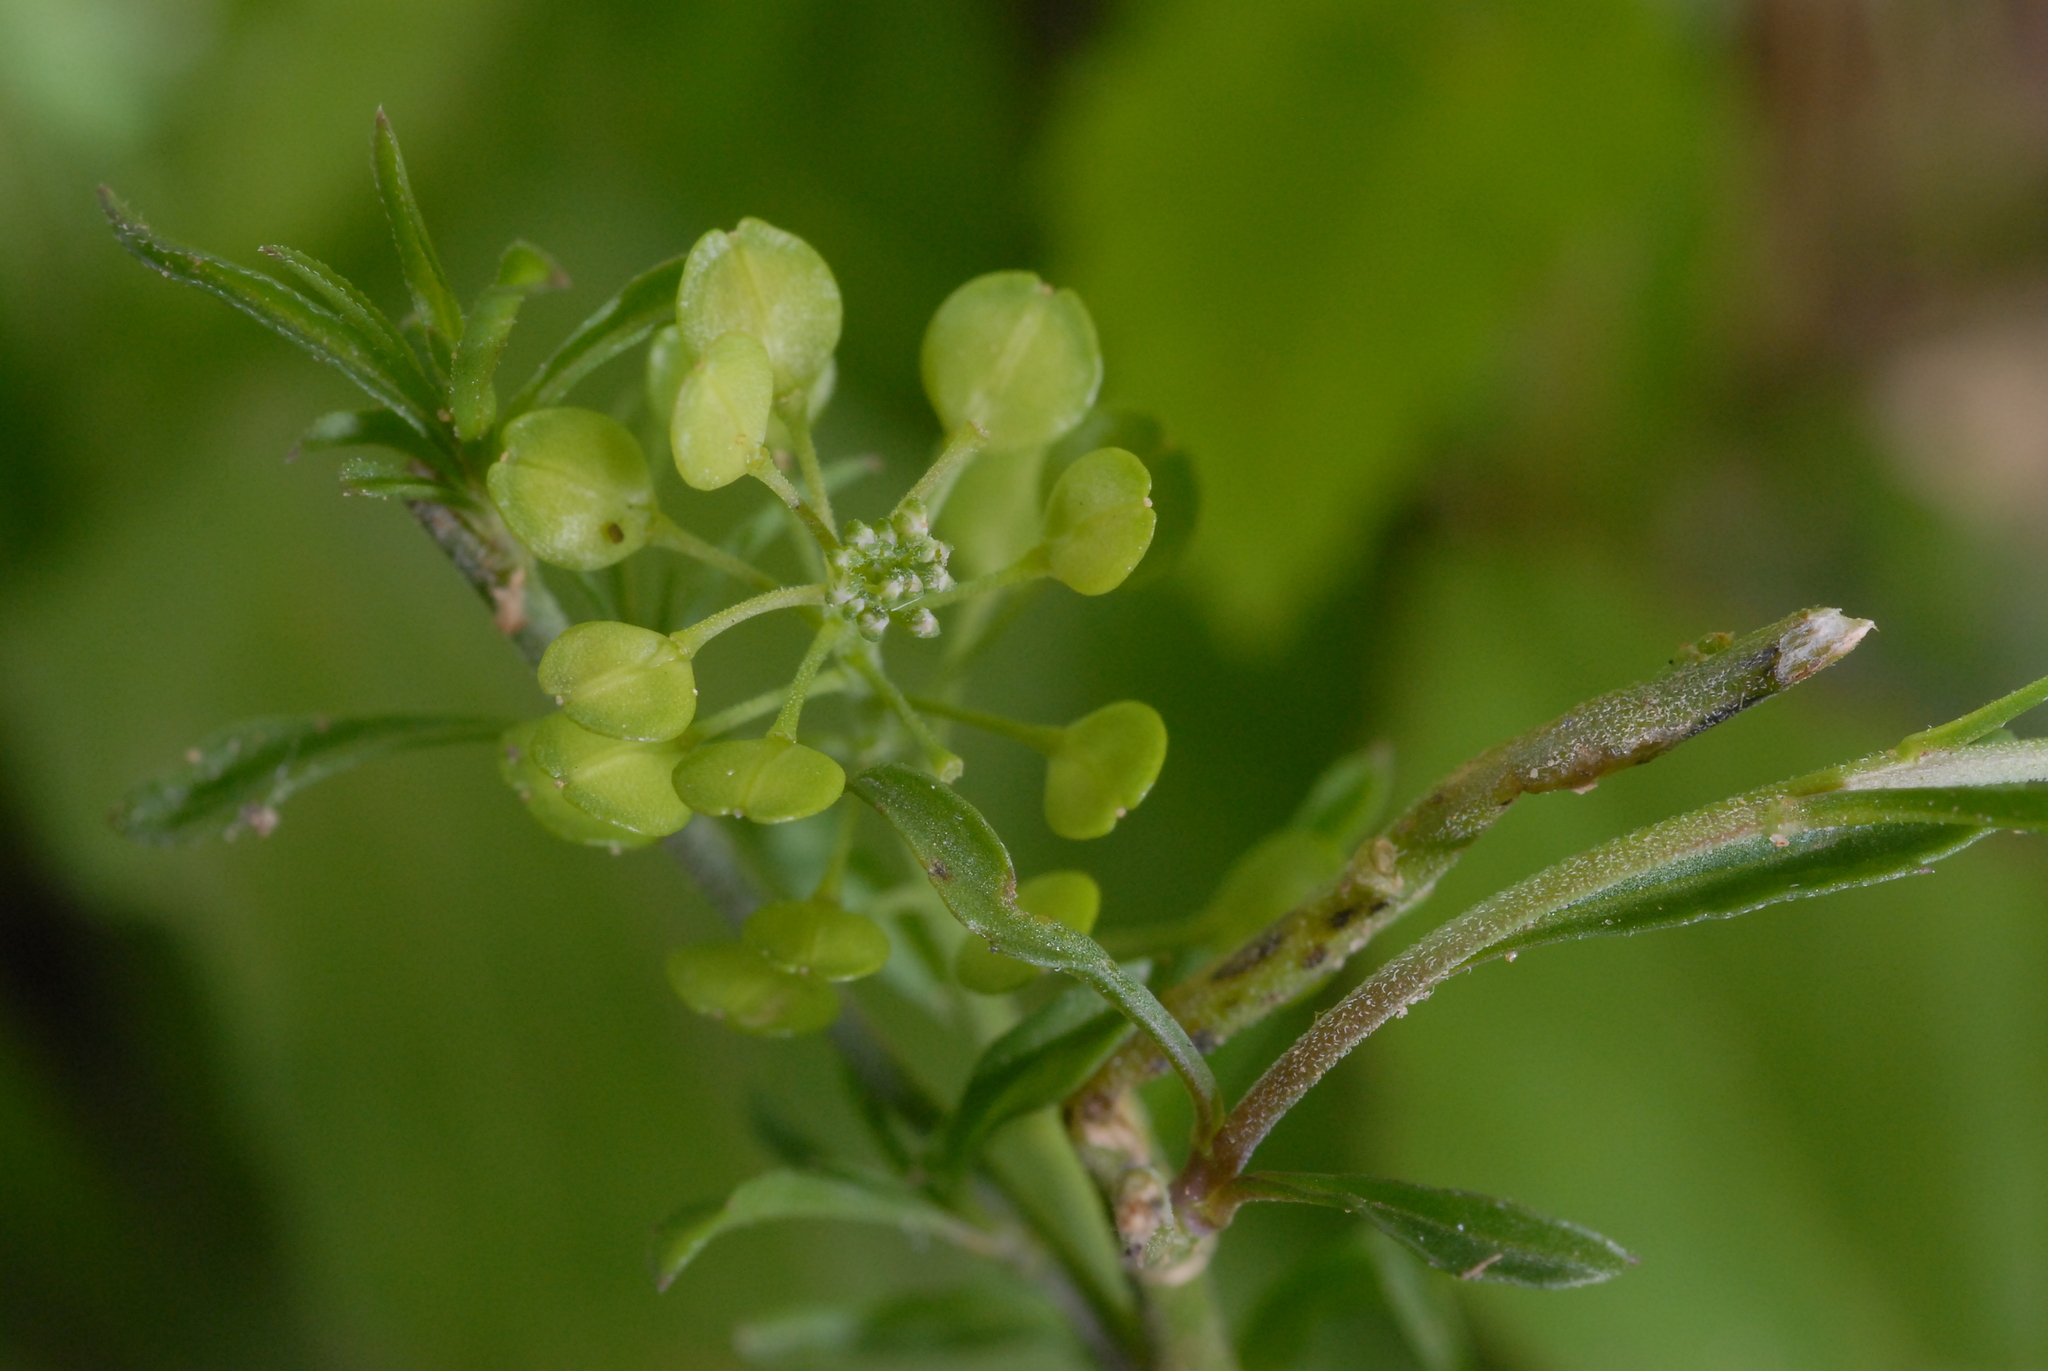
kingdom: Plantae
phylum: Tracheophyta
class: Magnoliopsida
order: Brassicales
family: Brassicaceae
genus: Lepidium
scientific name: Lepidium virginicum
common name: Least pepperwort
